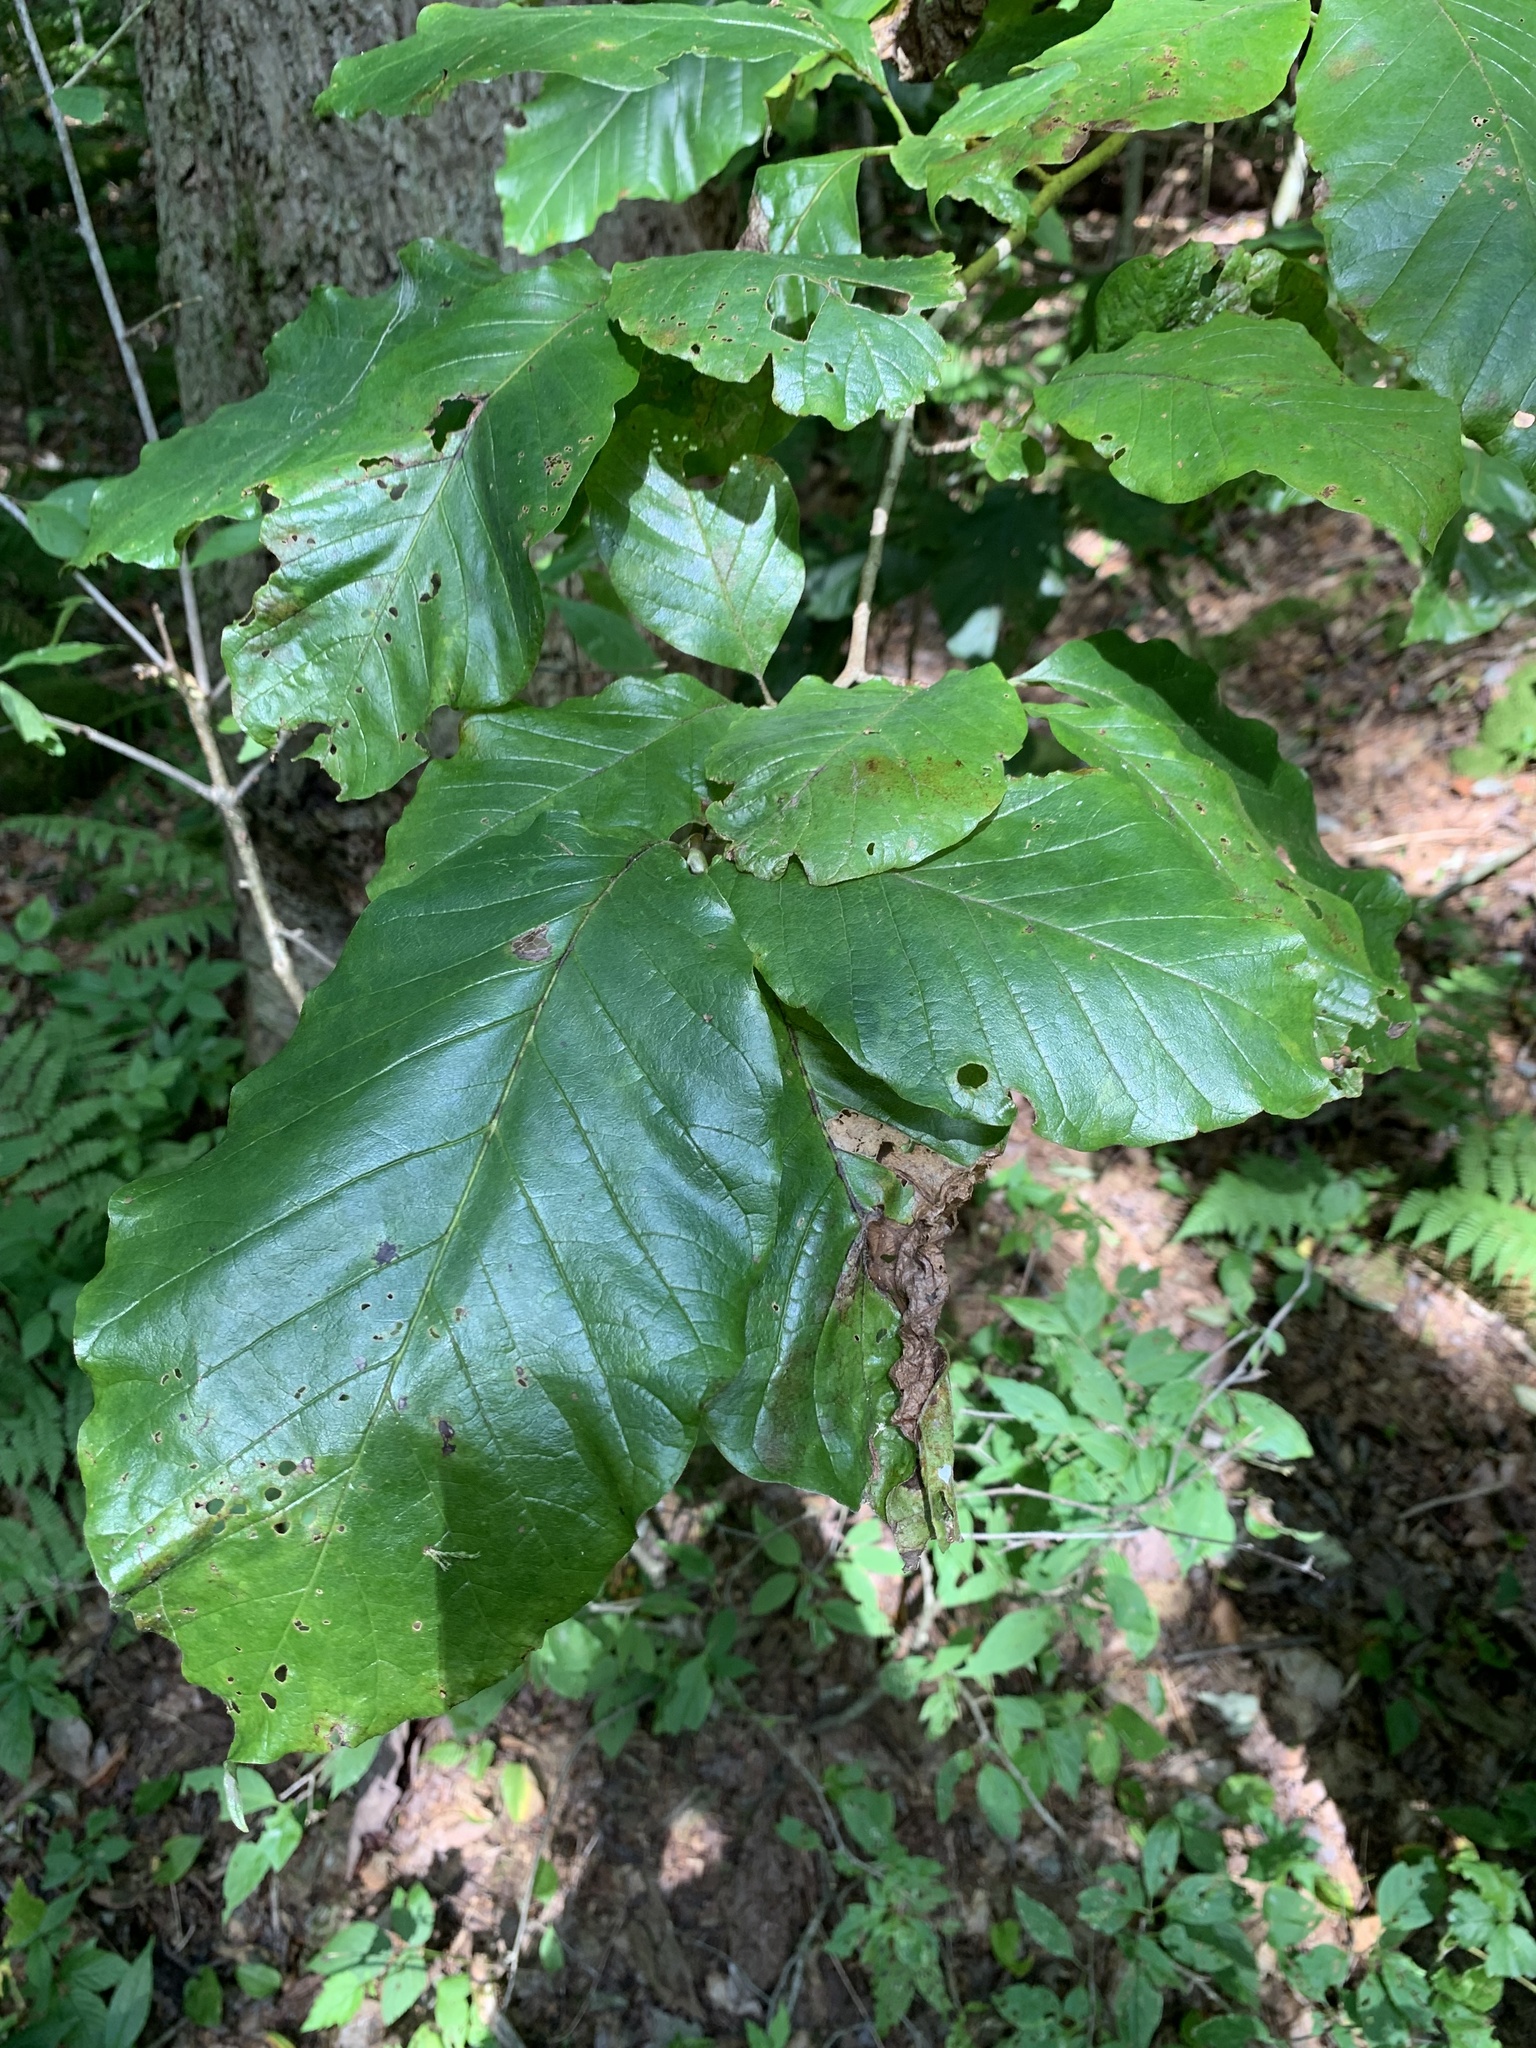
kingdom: Plantae
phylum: Tracheophyta
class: Magnoliopsida
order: Magnoliales
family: Magnoliaceae
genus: Magnolia
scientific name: Magnolia acuminata
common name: Cucumber magnolia
